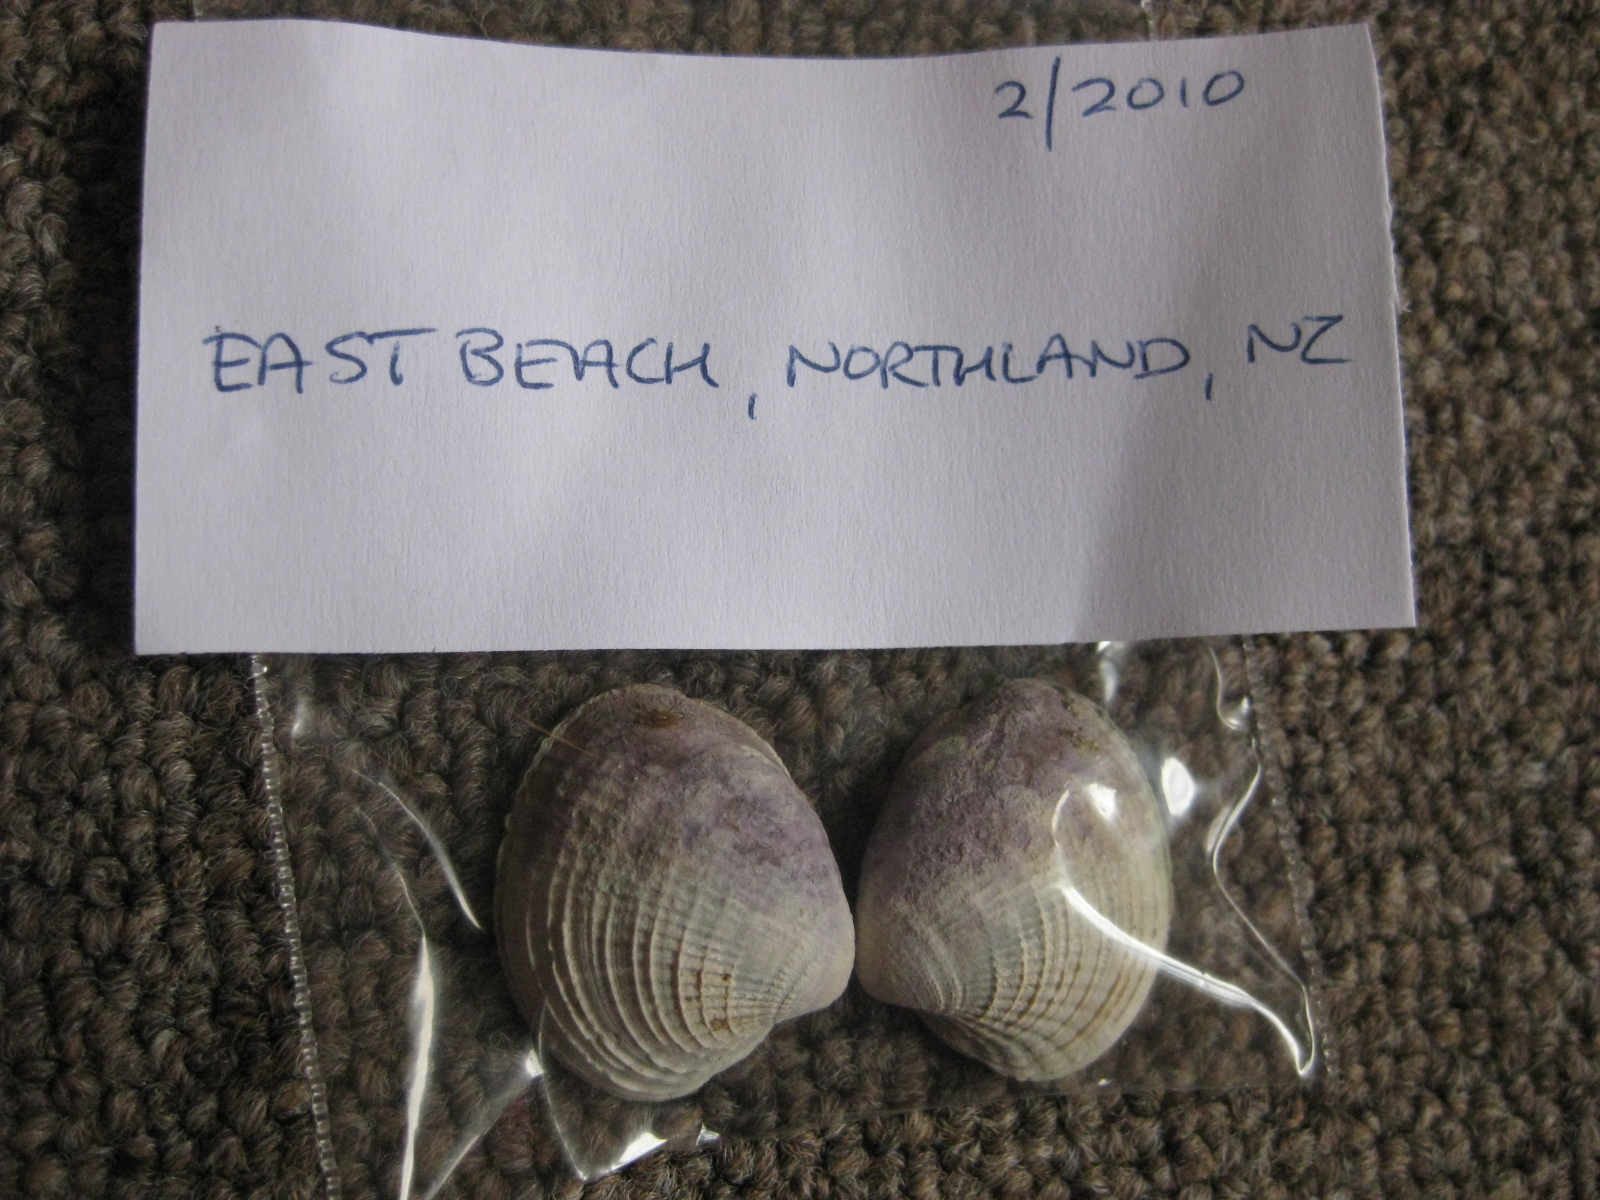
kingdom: Animalia
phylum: Mollusca
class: Bivalvia
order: Venerida
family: Veneridae
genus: Austrovenus
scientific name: Austrovenus stutchburyi
